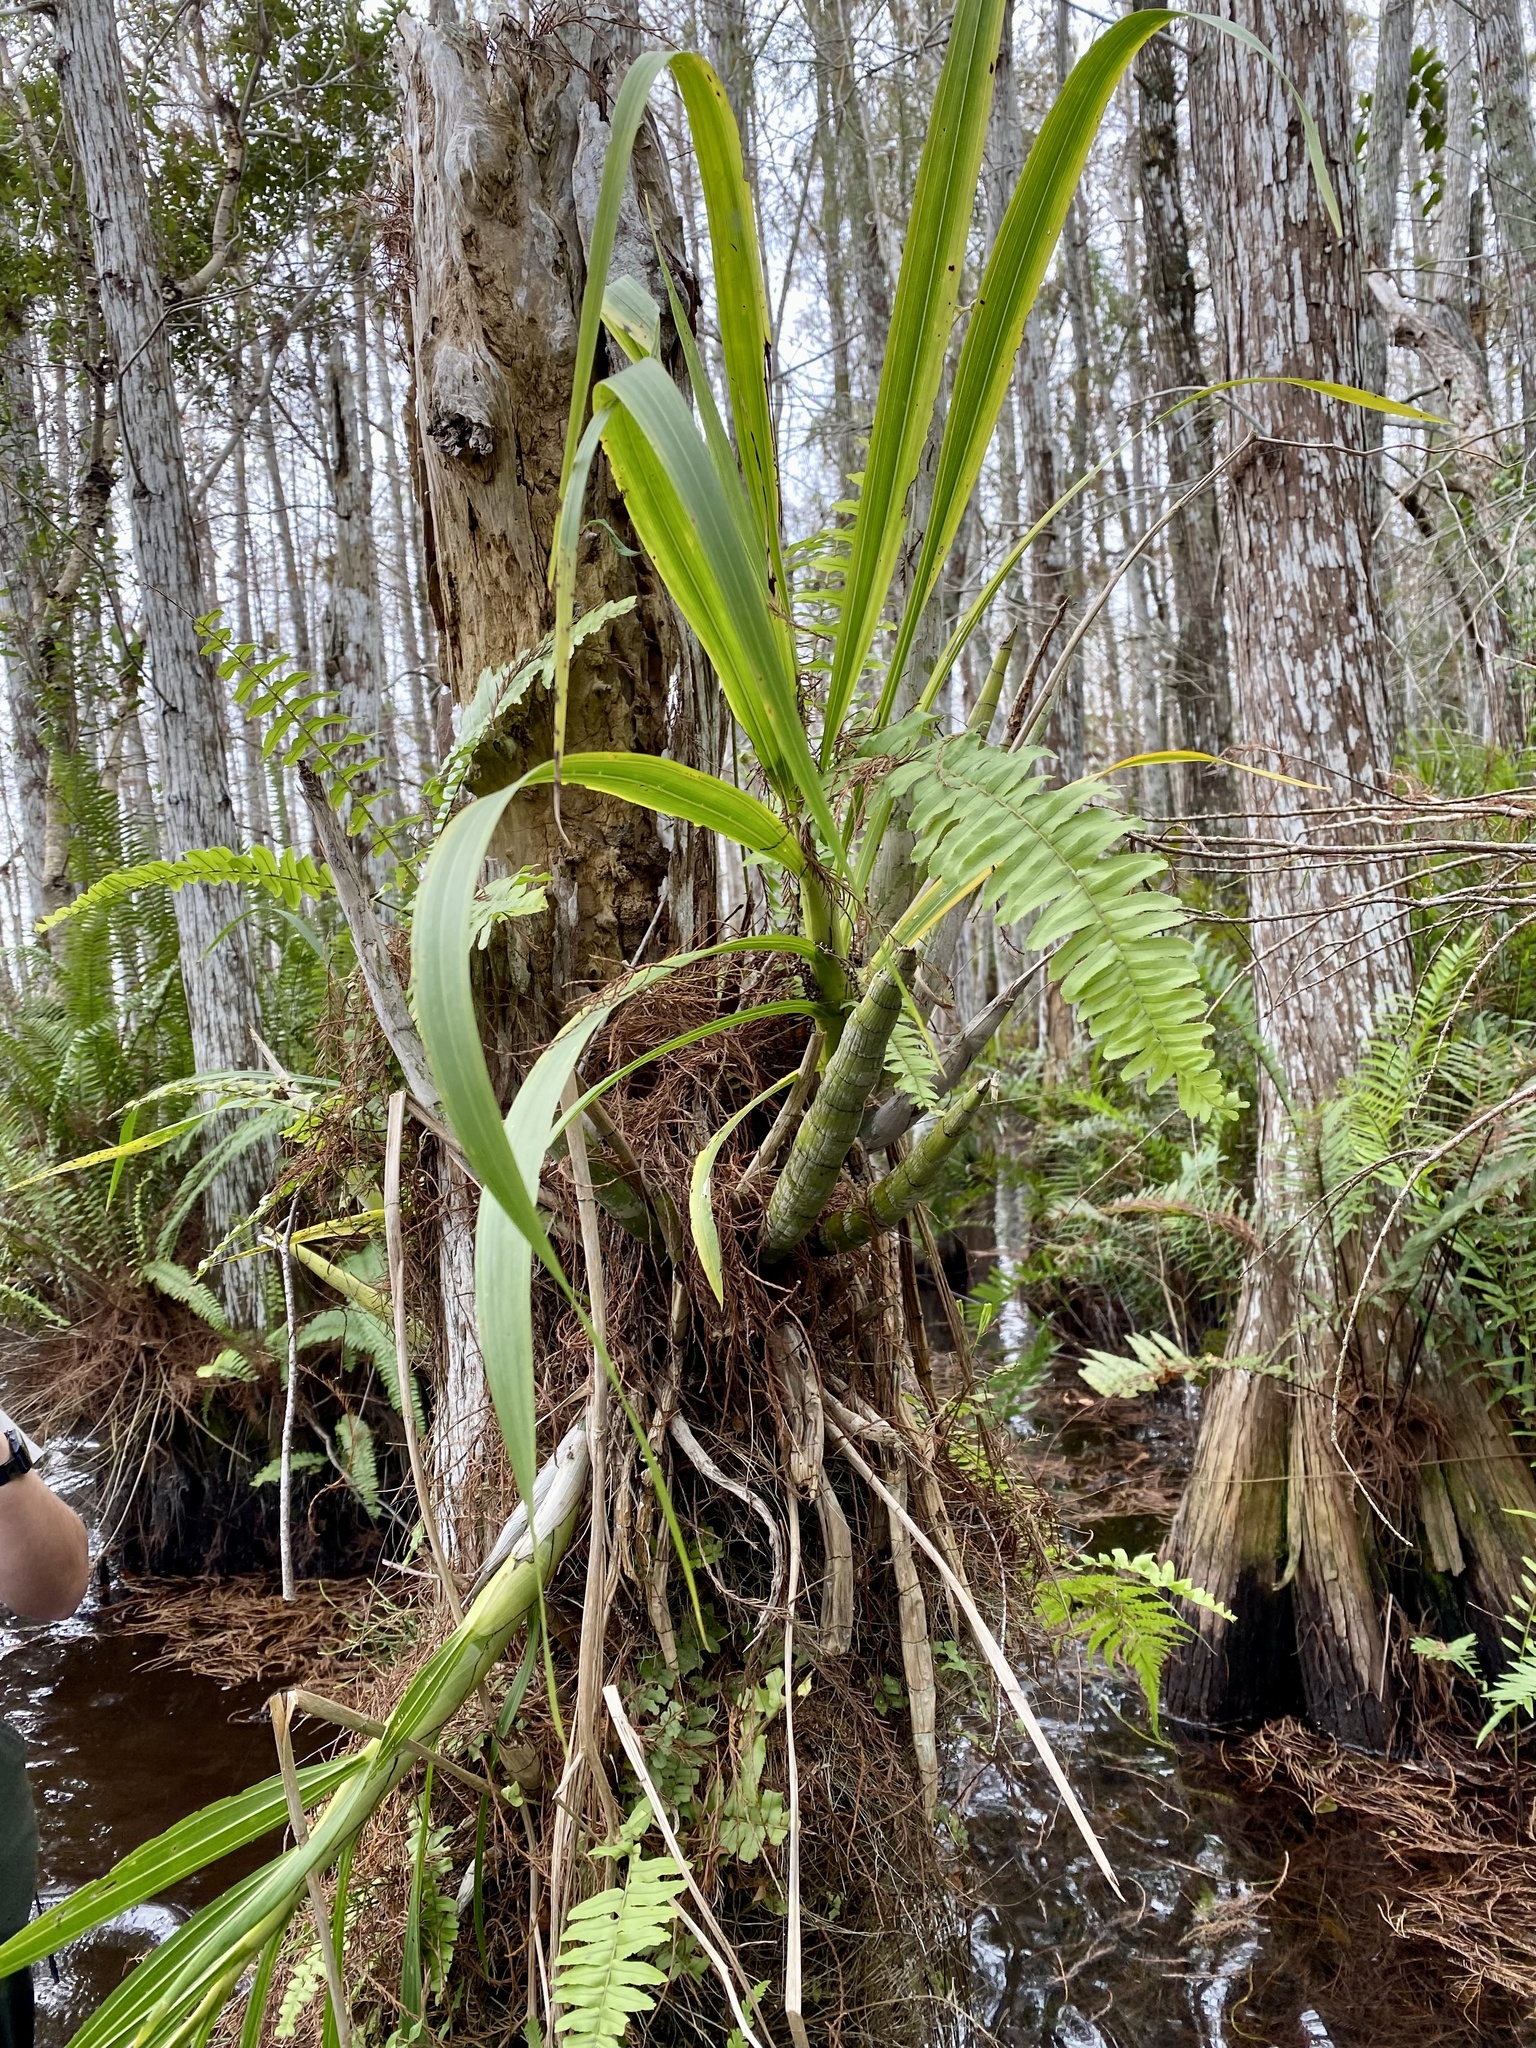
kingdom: Plantae
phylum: Tracheophyta
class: Liliopsida
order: Asparagales
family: Orchidaceae
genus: Cyrtopodium
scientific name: Cyrtopodium punctatum
